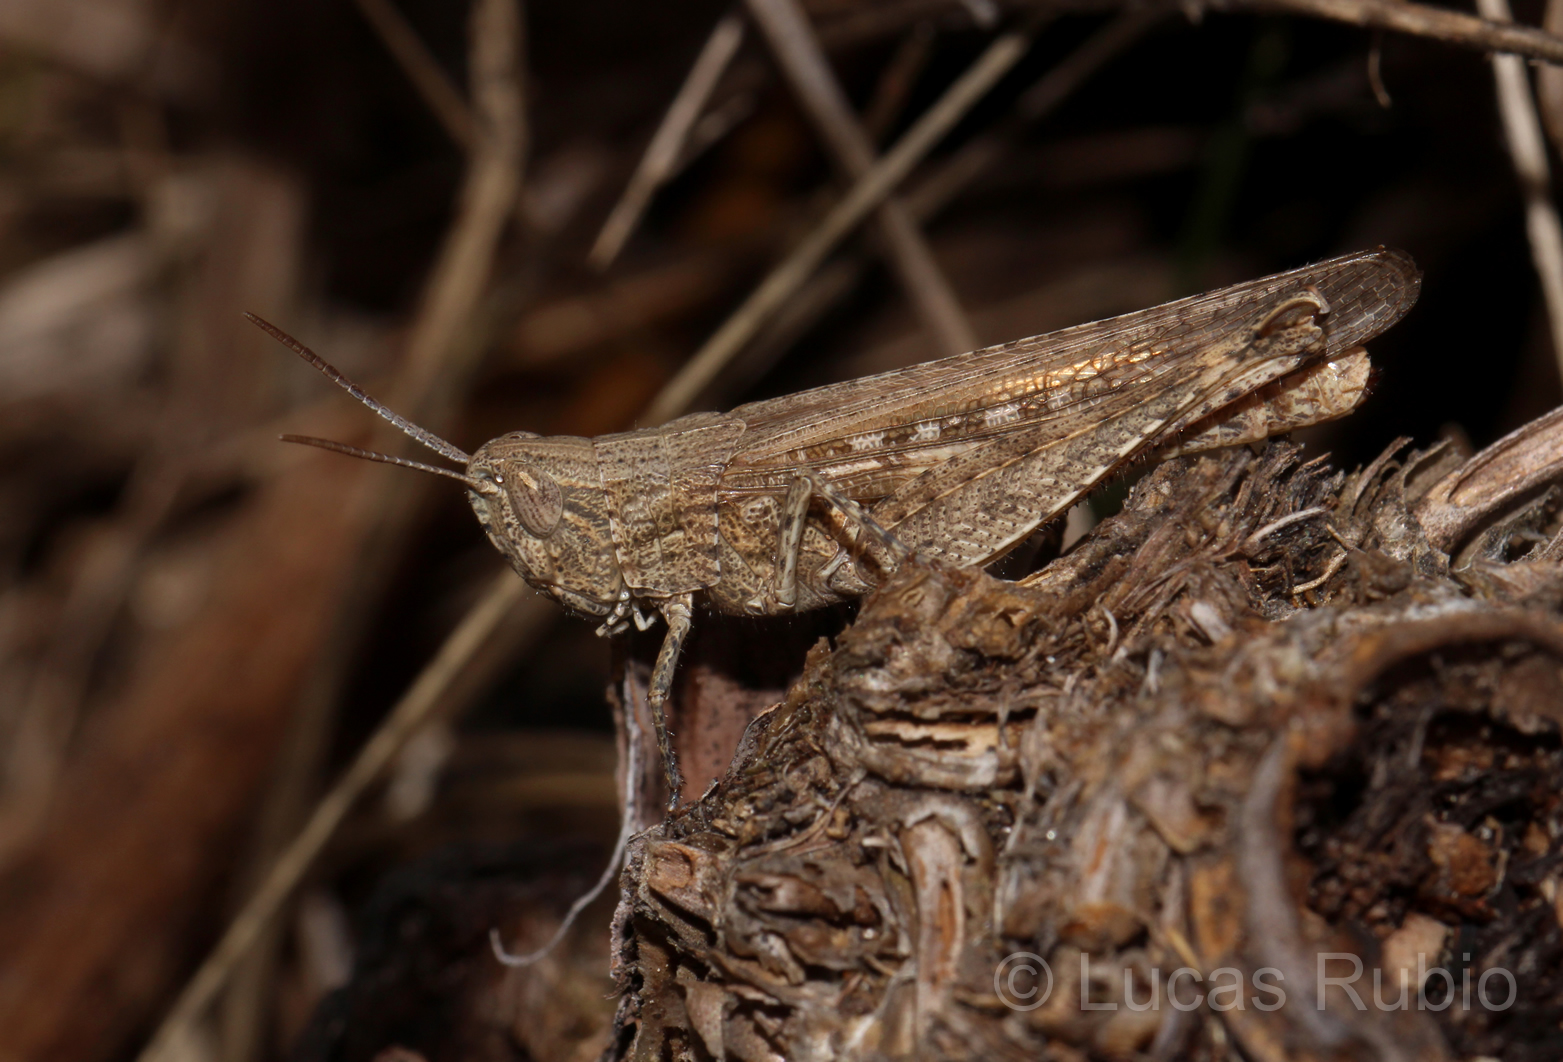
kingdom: Animalia
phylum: Arthropoda
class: Insecta
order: Orthoptera
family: Acrididae
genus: Euplectrotettix
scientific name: Euplectrotettix ferrugineus
